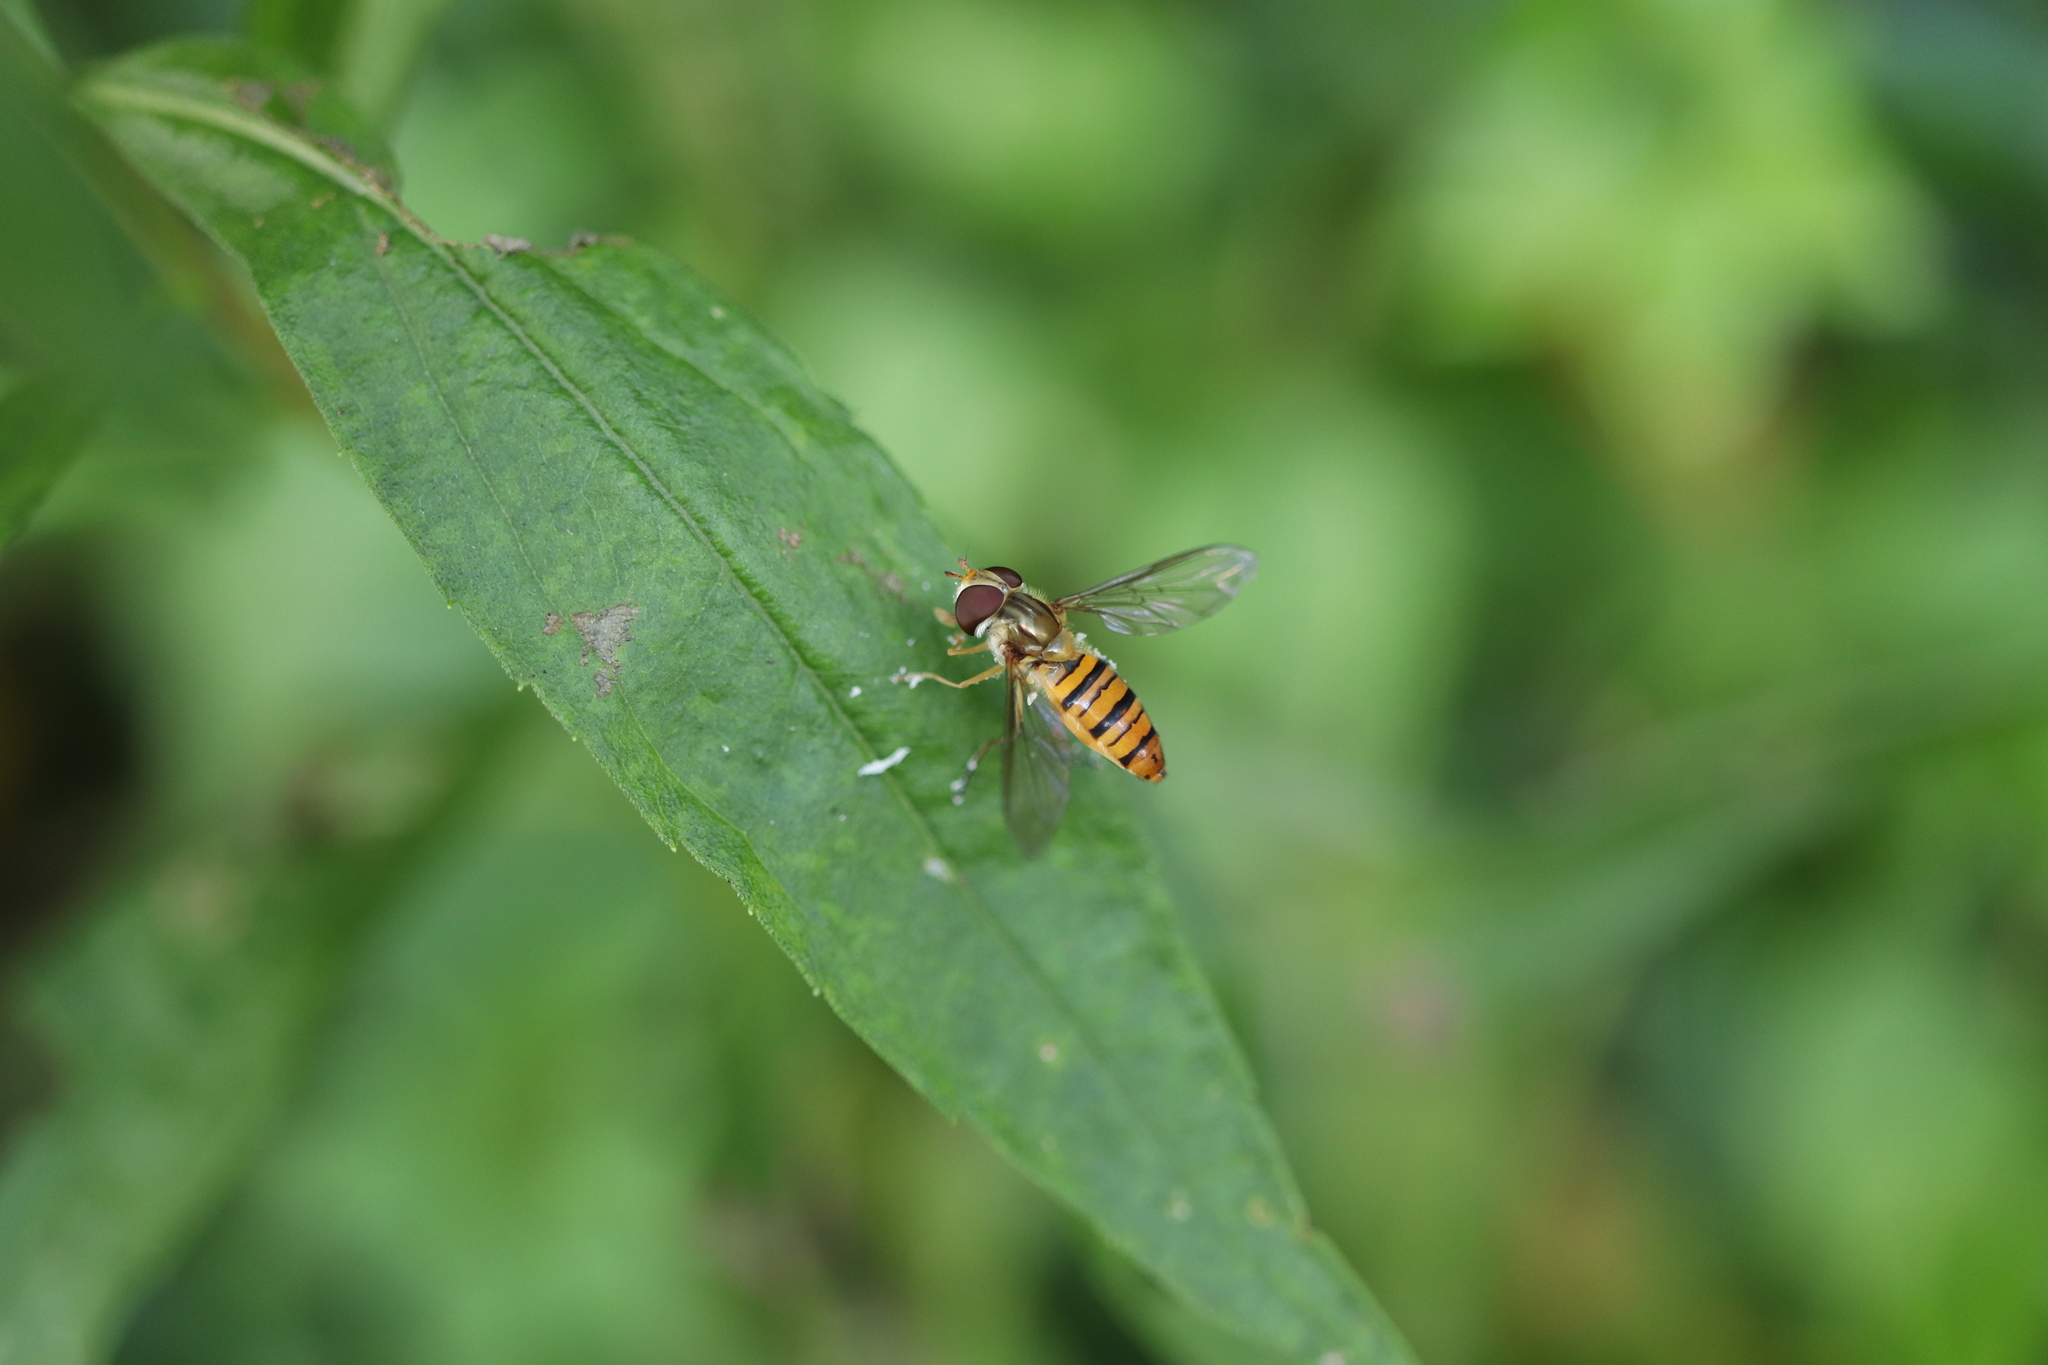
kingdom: Animalia
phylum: Arthropoda
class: Insecta
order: Diptera
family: Syrphidae
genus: Episyrphus
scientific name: Episyrphus balteatus
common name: Marmalade hoverfly
